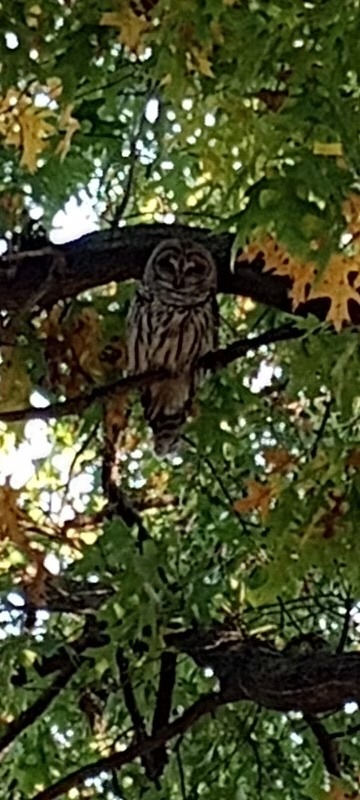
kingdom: Animalia
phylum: Chordata
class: Aves
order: Strigiformes
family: Strigidae
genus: Strix
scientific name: Strix varia
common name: Barred owl
